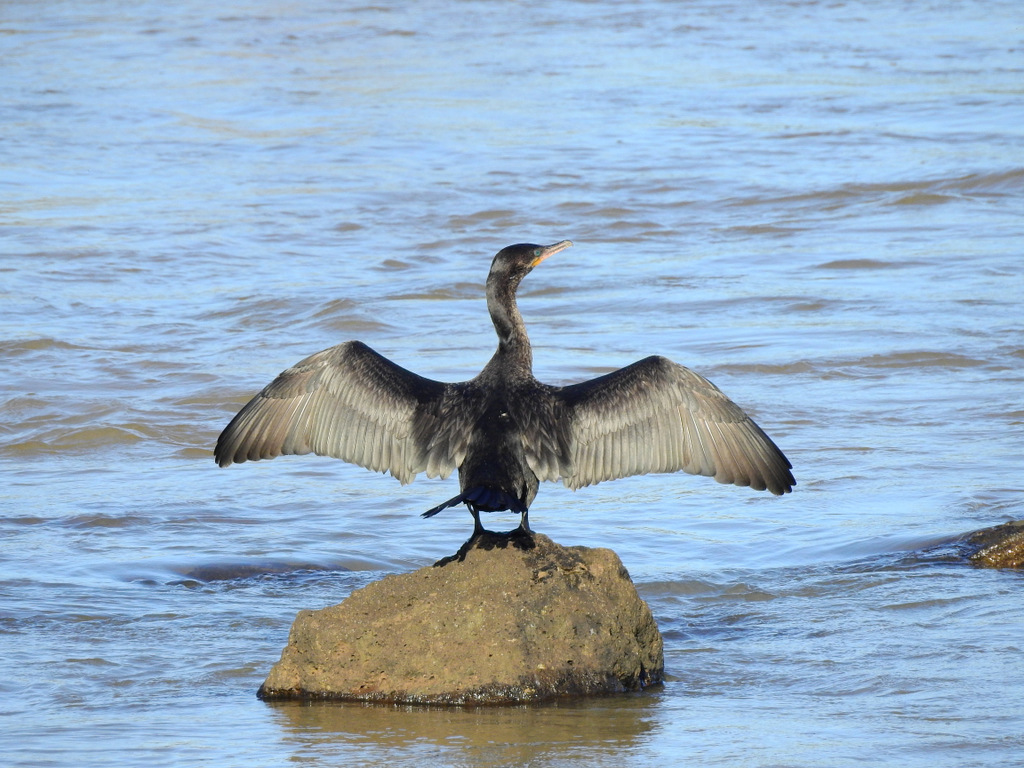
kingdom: Animalia
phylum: Chordata
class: Aves
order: Suliformes
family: Phalacrocoracidae
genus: Phalacrocorax
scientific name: Phalacrocorax brasilianus
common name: Neotropic cormorant
